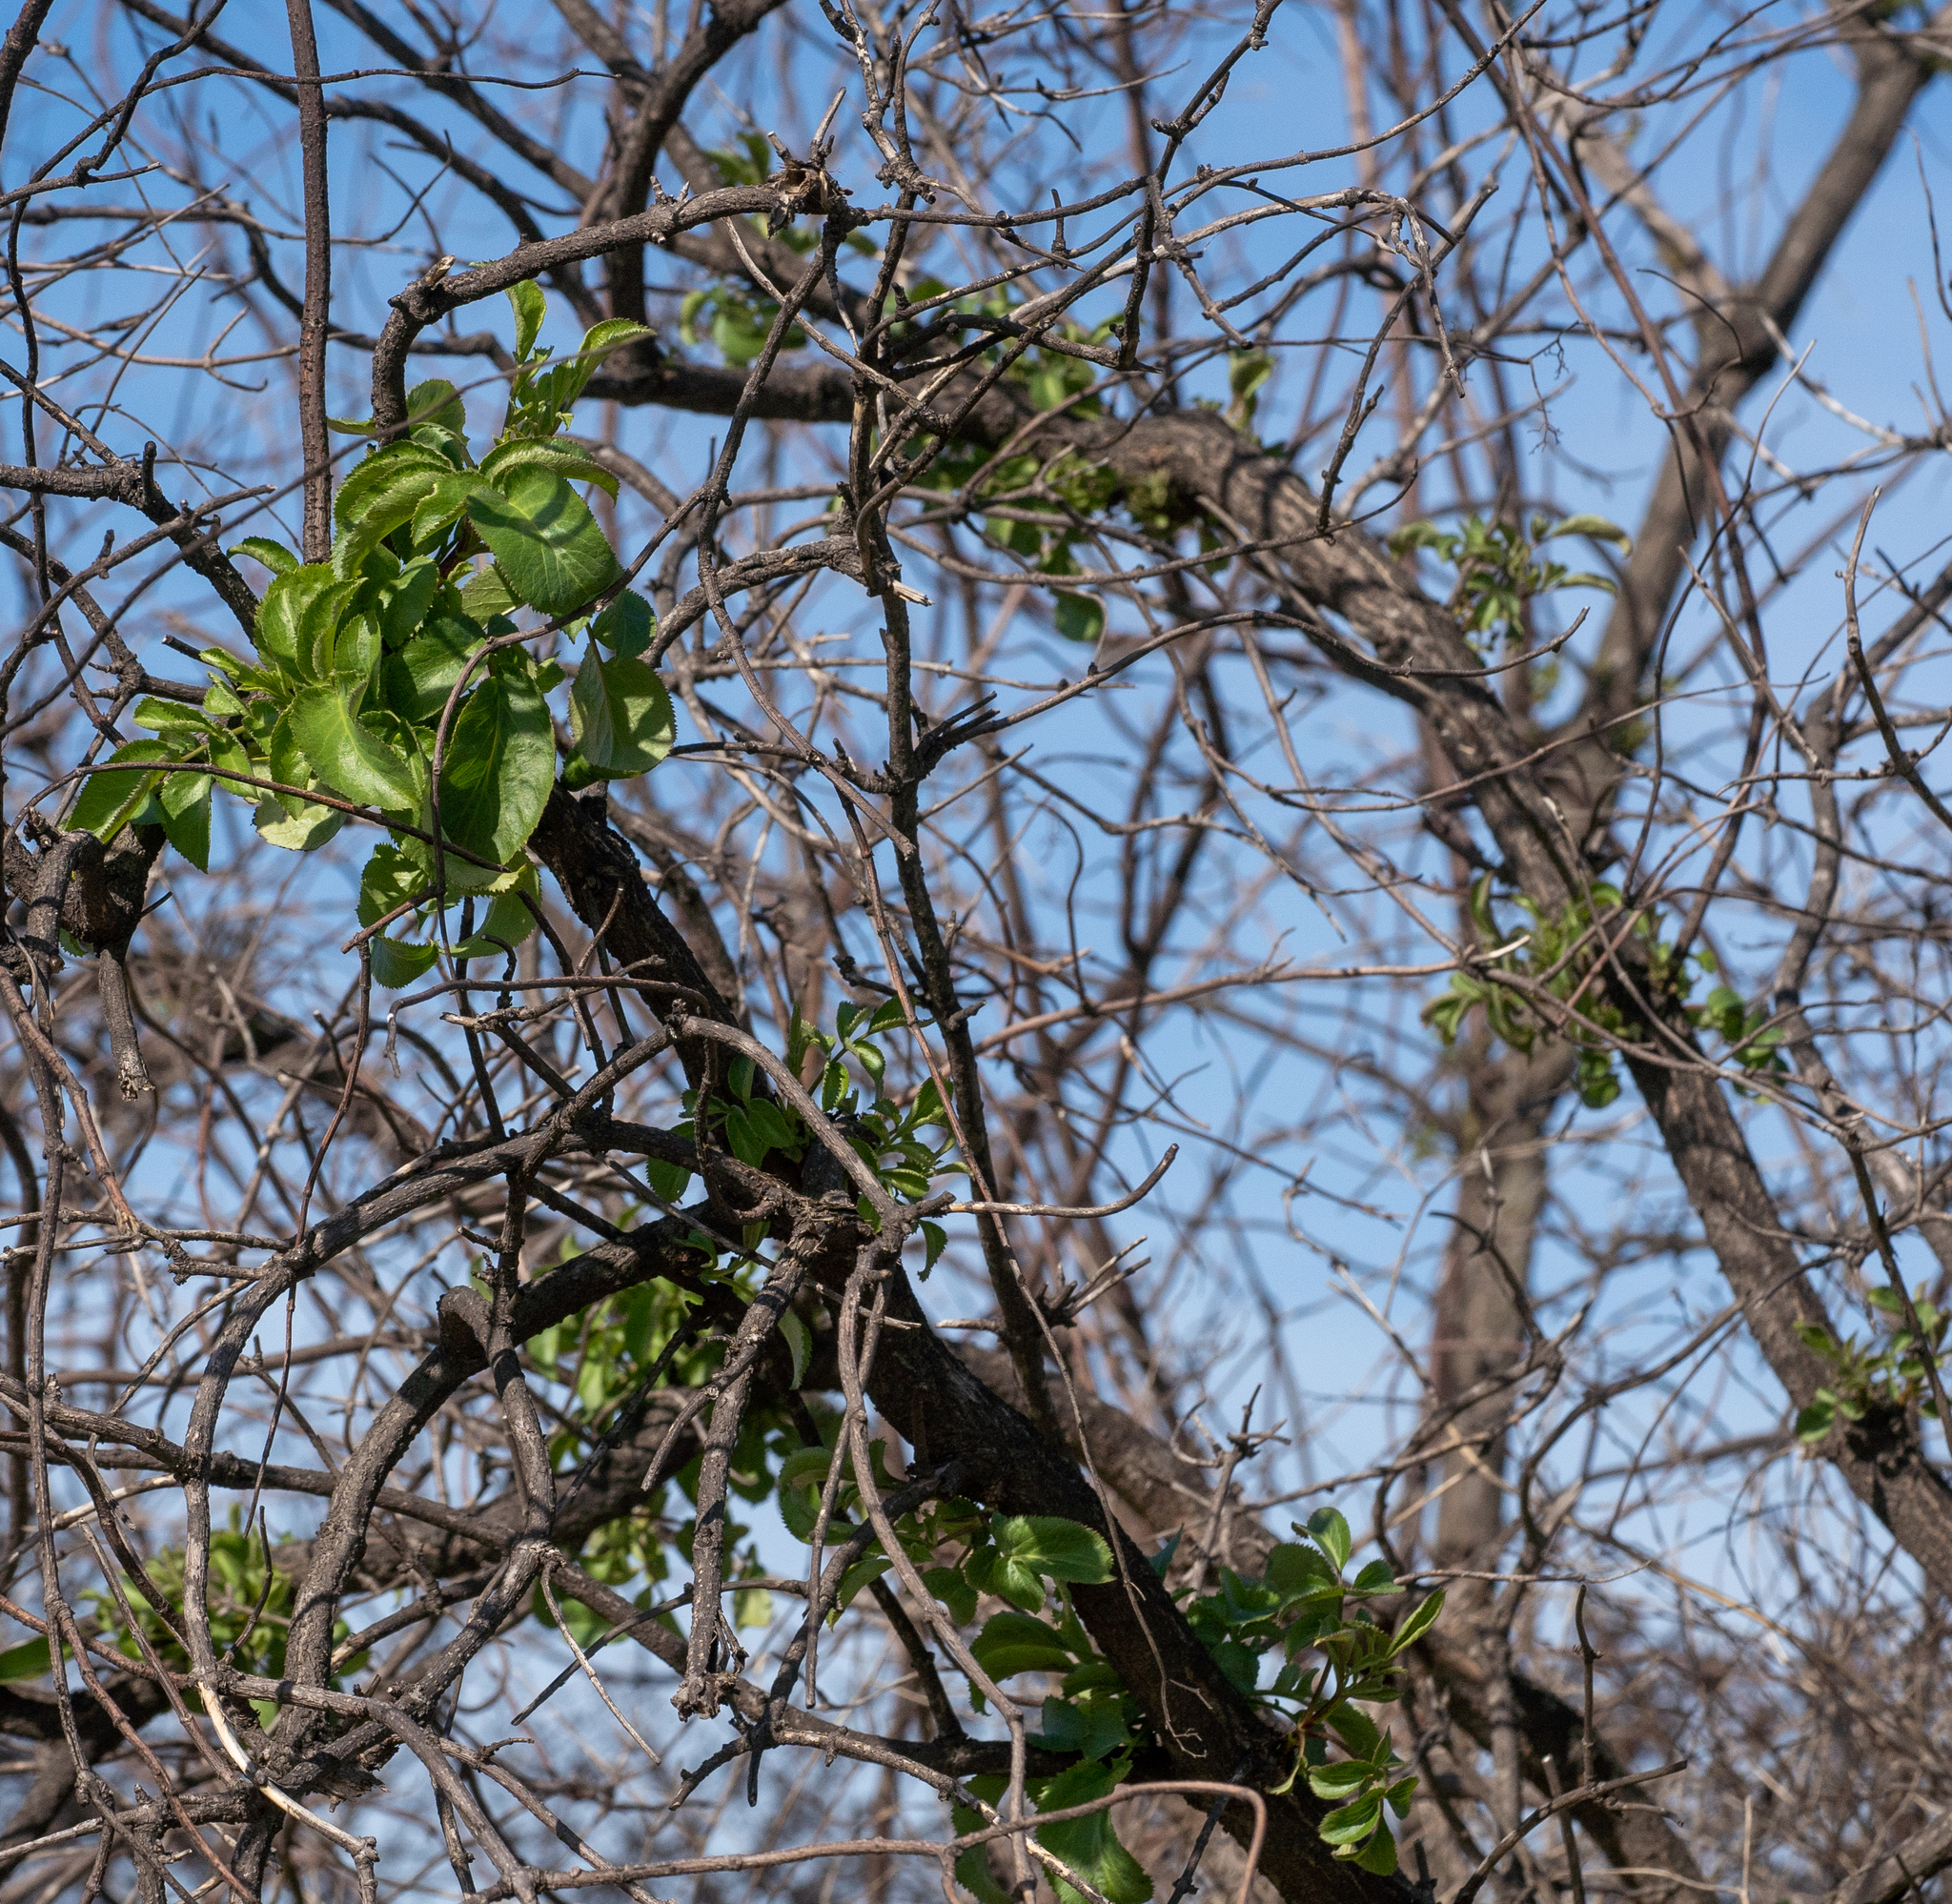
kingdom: Plantae
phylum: Tracheophyta
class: Magnoliopsida
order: Dipsacales
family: Viburnaceae
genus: Sambucus
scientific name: Sambucus cerulea
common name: Blue elder
